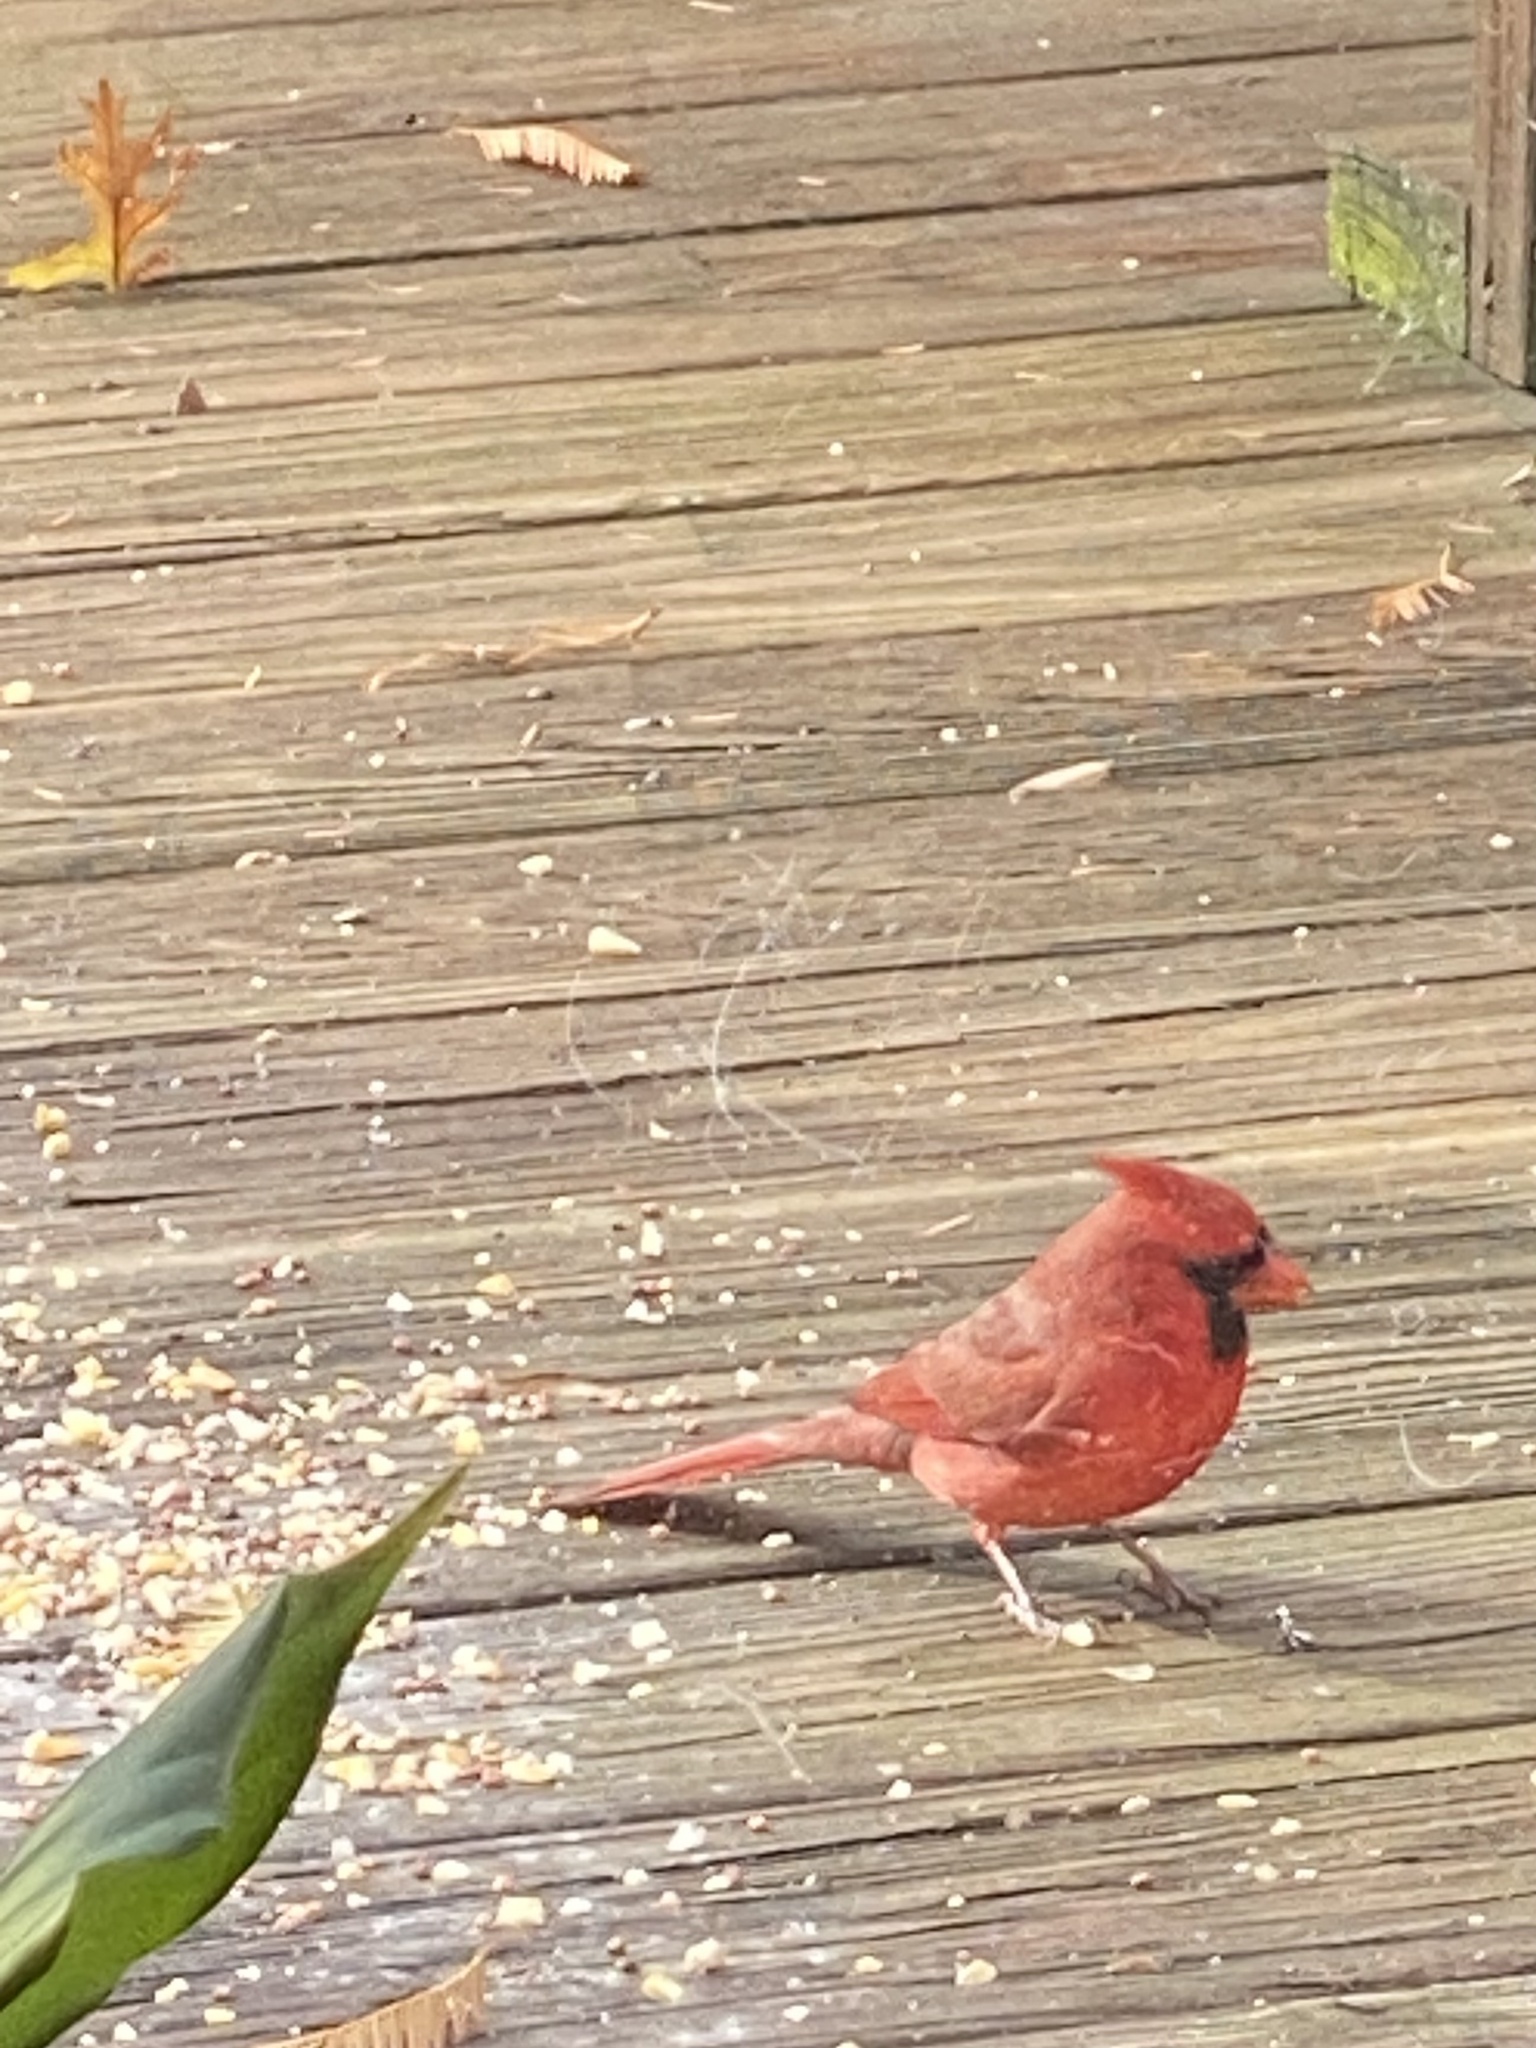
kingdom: Animalia
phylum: Chordata
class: Aves
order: Passeriformes
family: Cardinalidae
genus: Cardinalis
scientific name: Cardinalis cardinalis
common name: Northern cardinal
